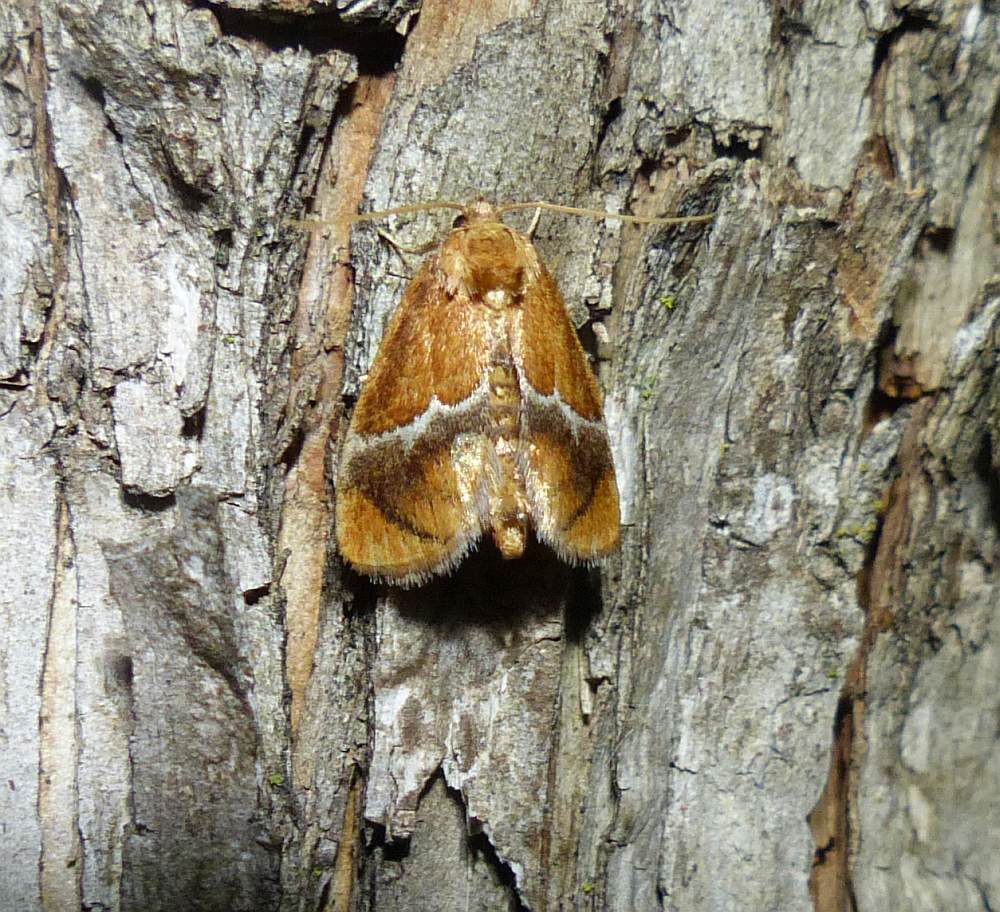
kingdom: Animalia
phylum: Arthropoda
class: Insecta
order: Lepidoptera
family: Limacodidae
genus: Lithacodes
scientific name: Lithacodes fasciola
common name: Yellow-shouldered slug moth
